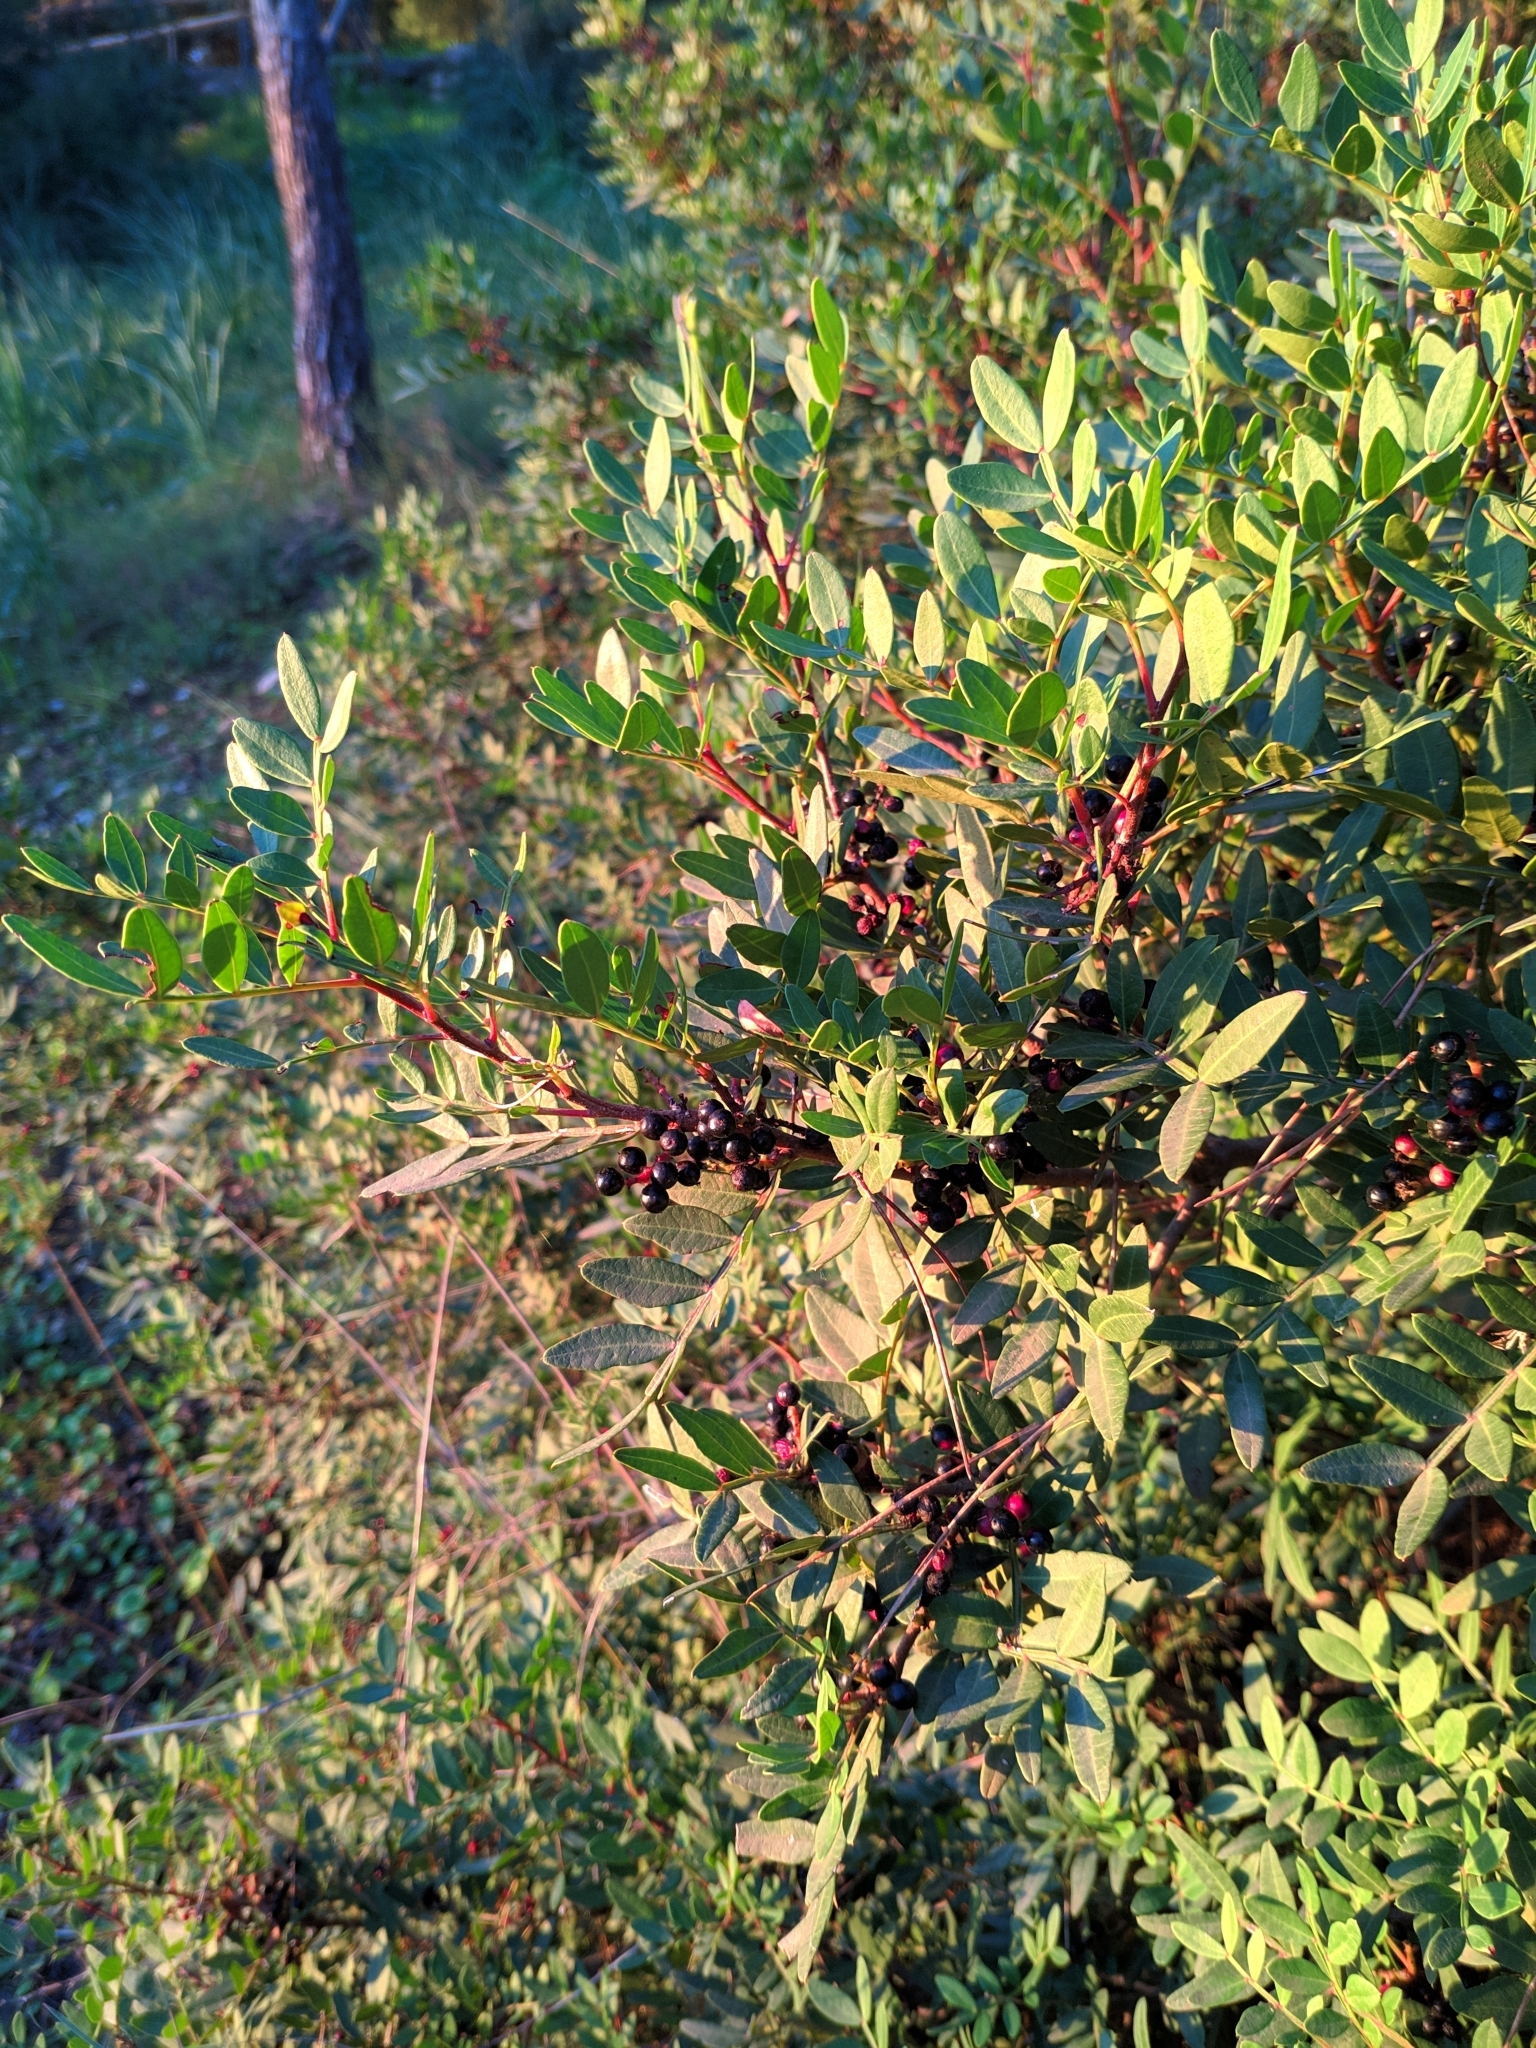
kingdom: Plantae
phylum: Tracheophyta
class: Magnoliopsida
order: Sapindales
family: Anacardiaceae
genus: Pistacia
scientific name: Pistacia lentiscus
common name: Lentisk
